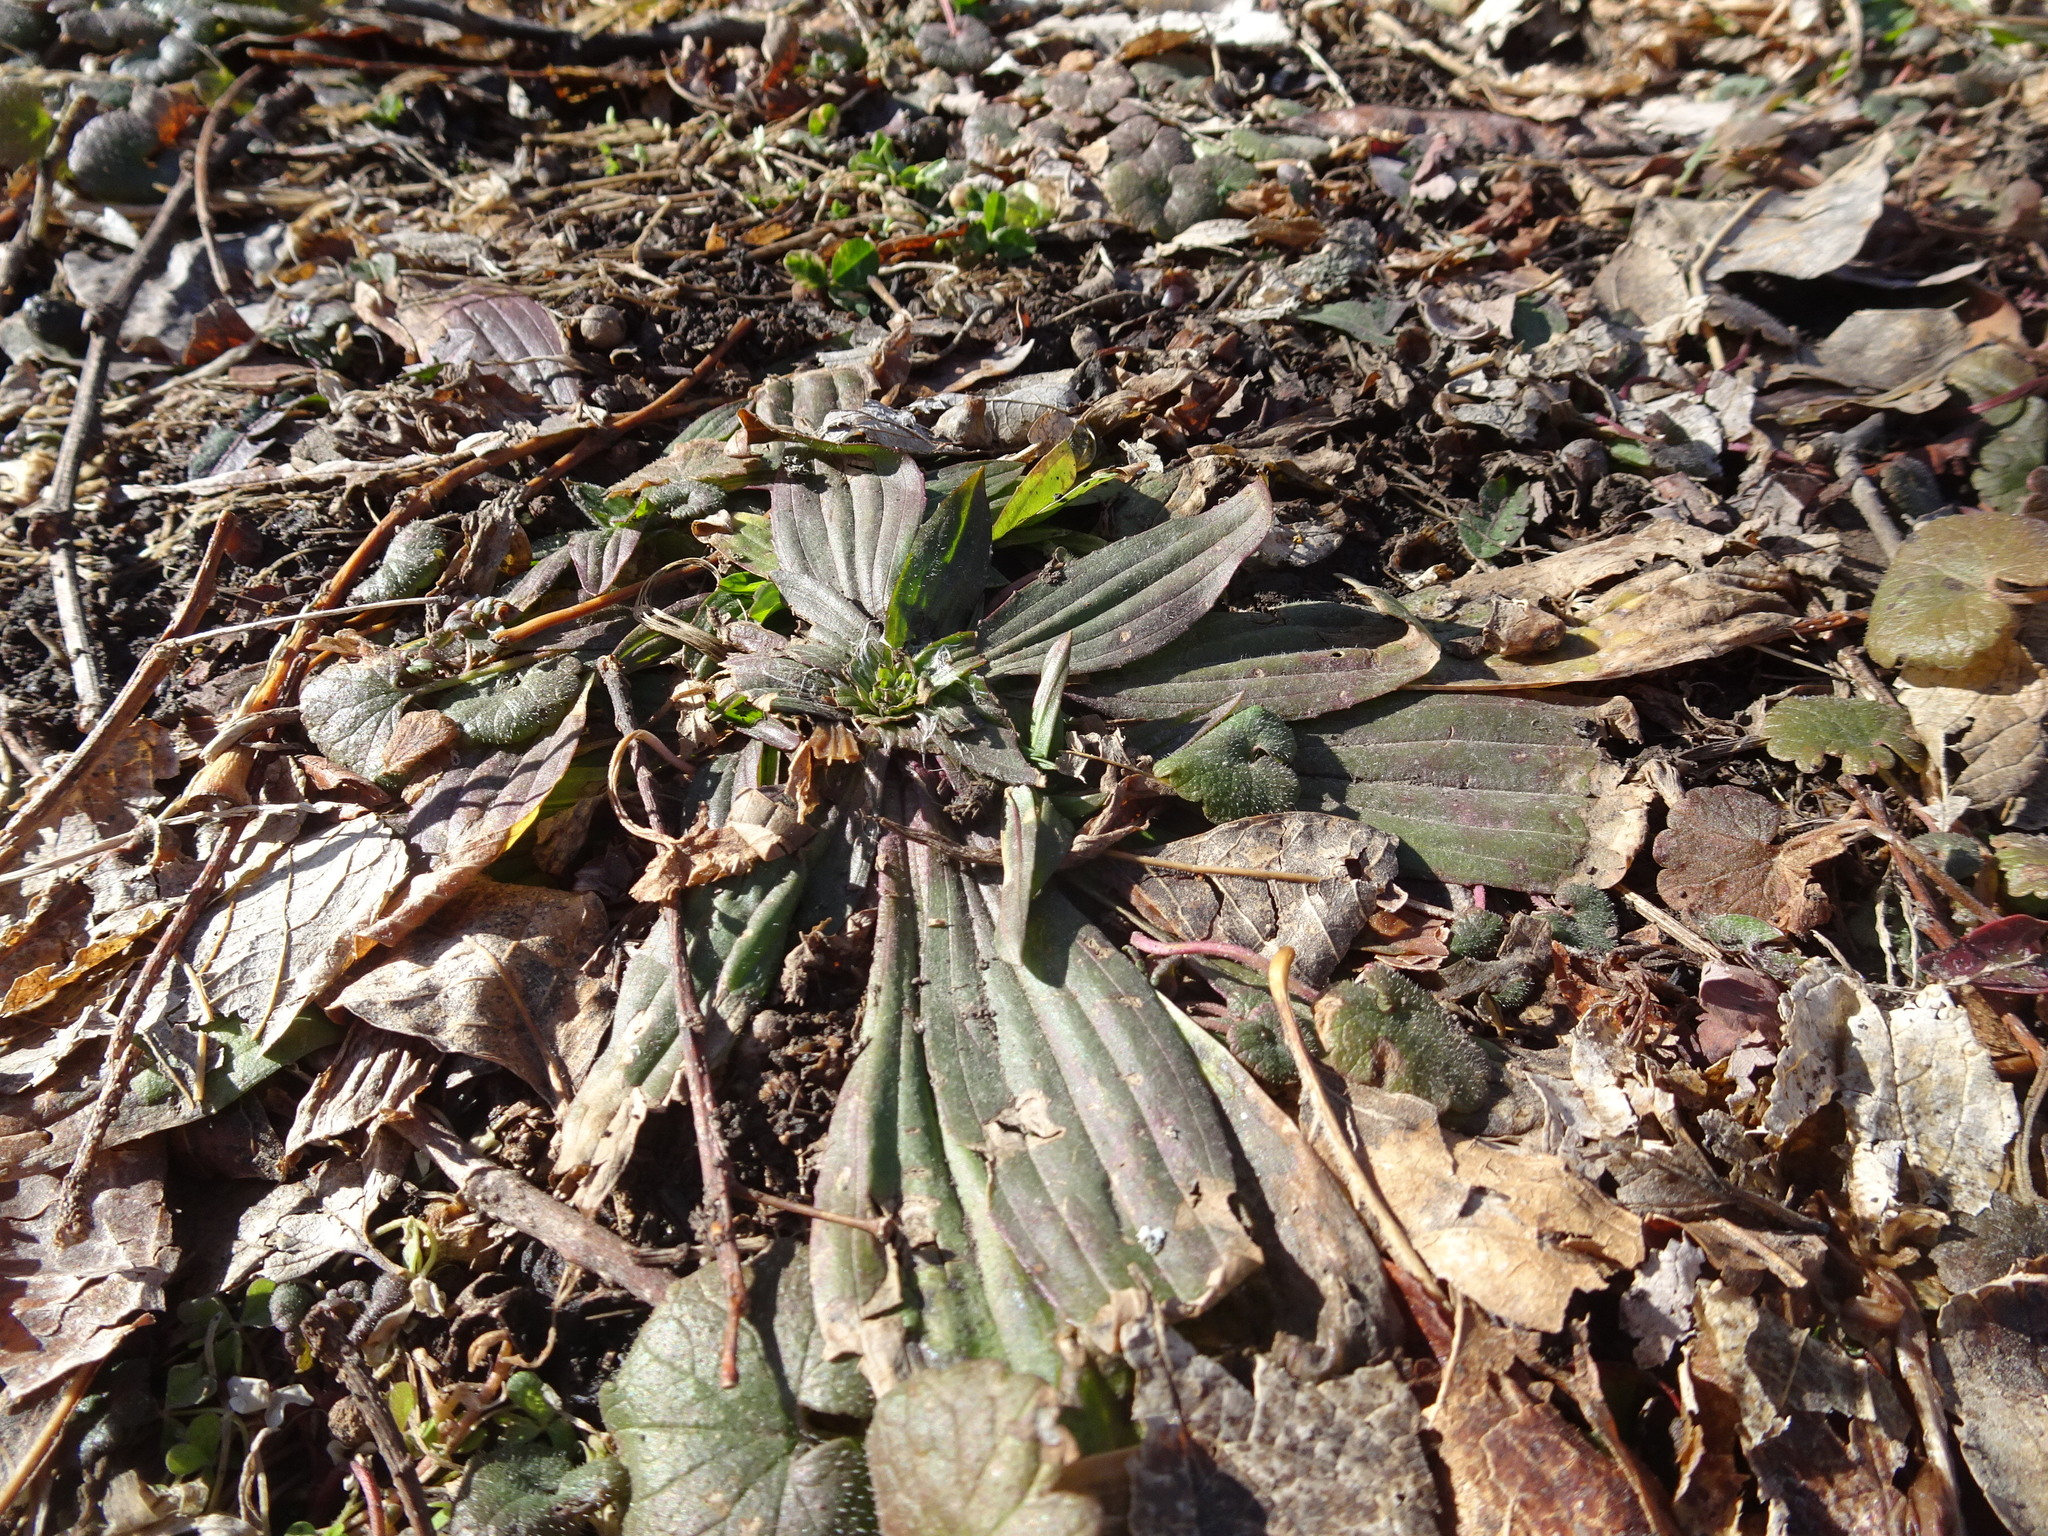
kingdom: Plantae
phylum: Tracheophyta
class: Magnoliopsida
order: Lamiales
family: Plantaginaceae
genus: Plantago
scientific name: Plantago lanceolata
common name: Ribwort plantain
